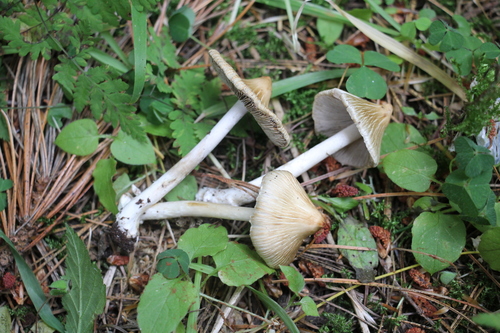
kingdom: Fungi
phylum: Basidiomycota
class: Agaricomycetes
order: Agaricales
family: Inocybaceae
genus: Inosperma
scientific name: Inosperma lanatodiscum
